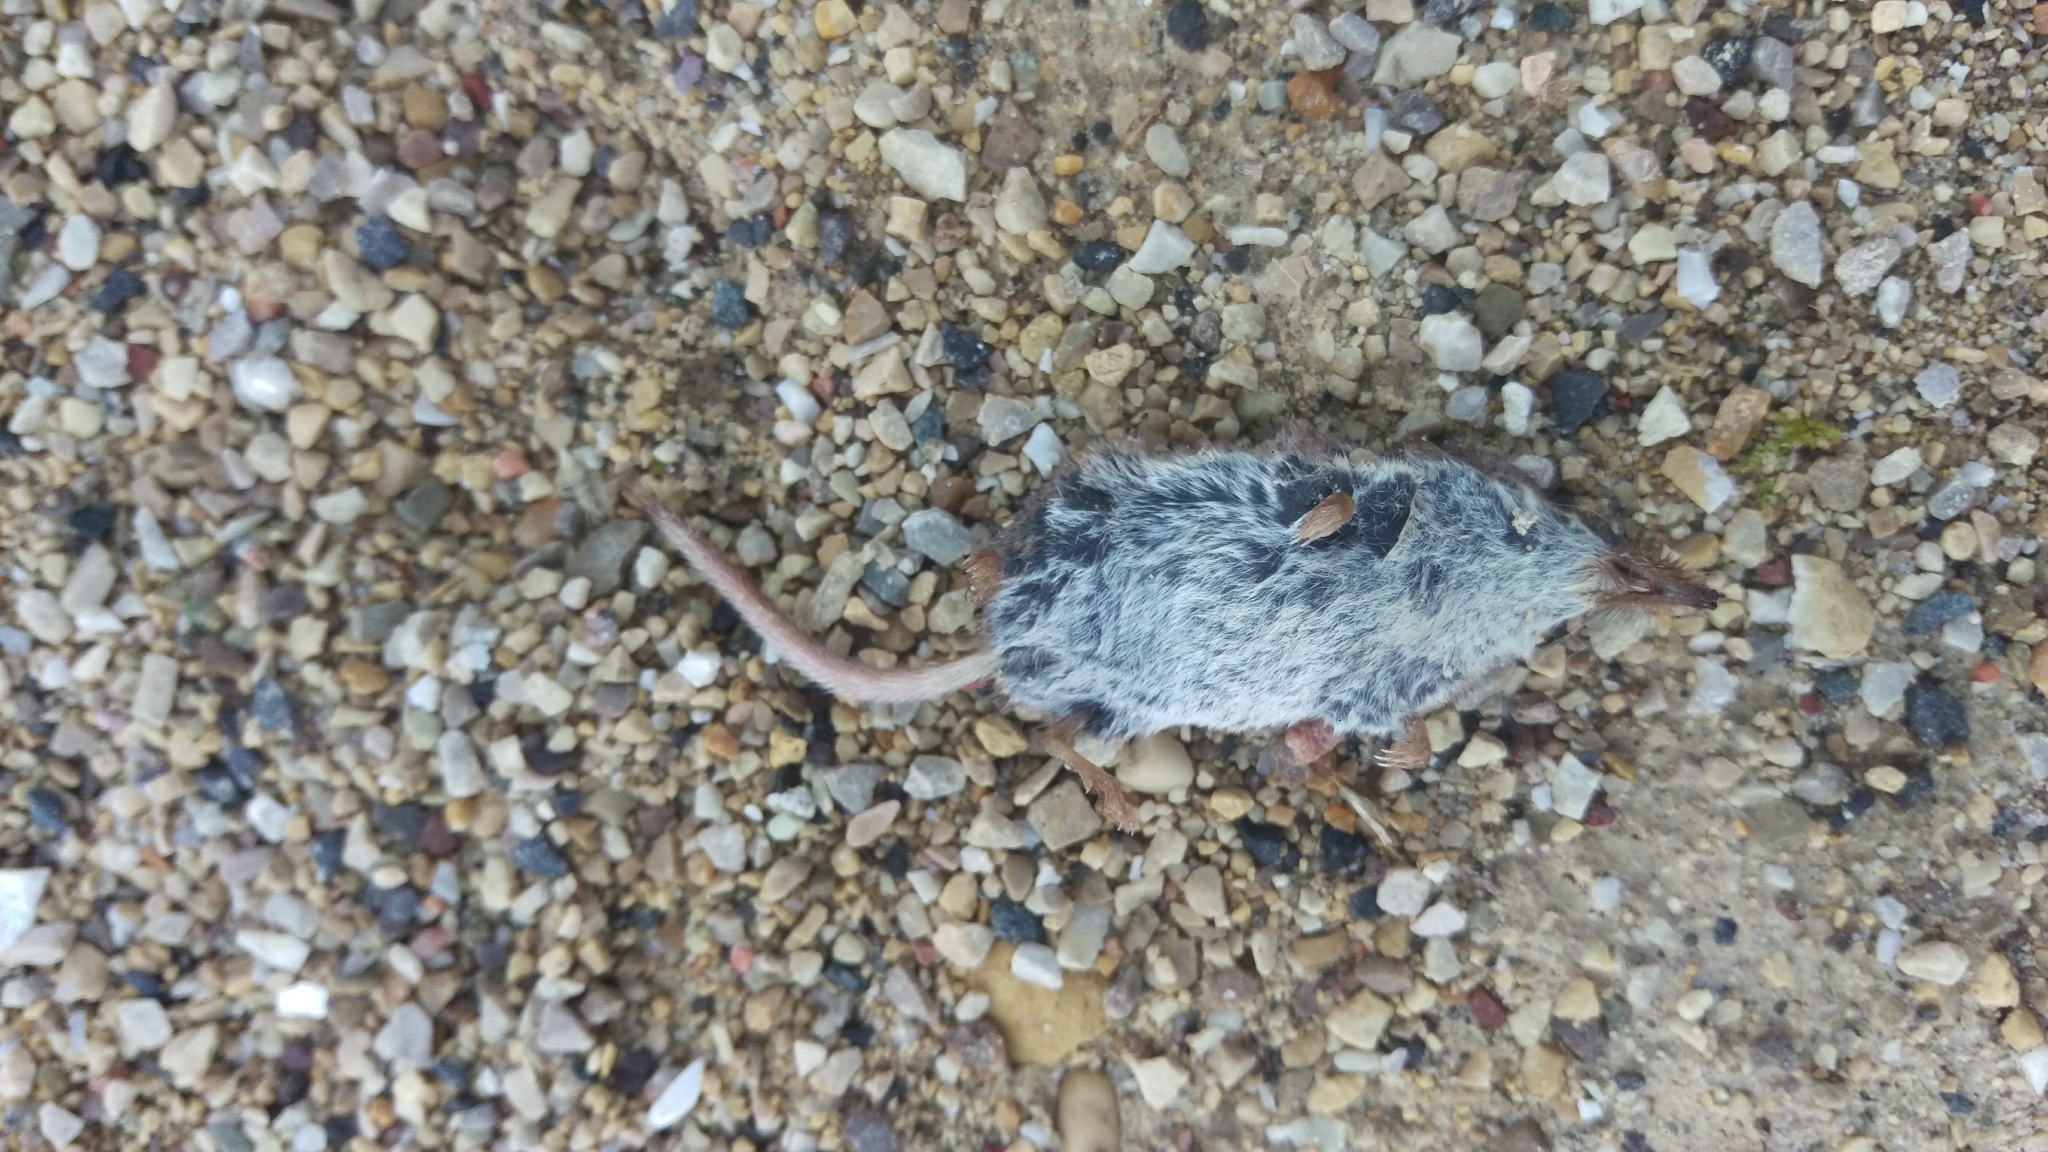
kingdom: Animalia
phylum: Chordata
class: Mammalia
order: Soricomorpha
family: Soricidae
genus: Sorex
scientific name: Sorex cinereus
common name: Cinereus shrew
